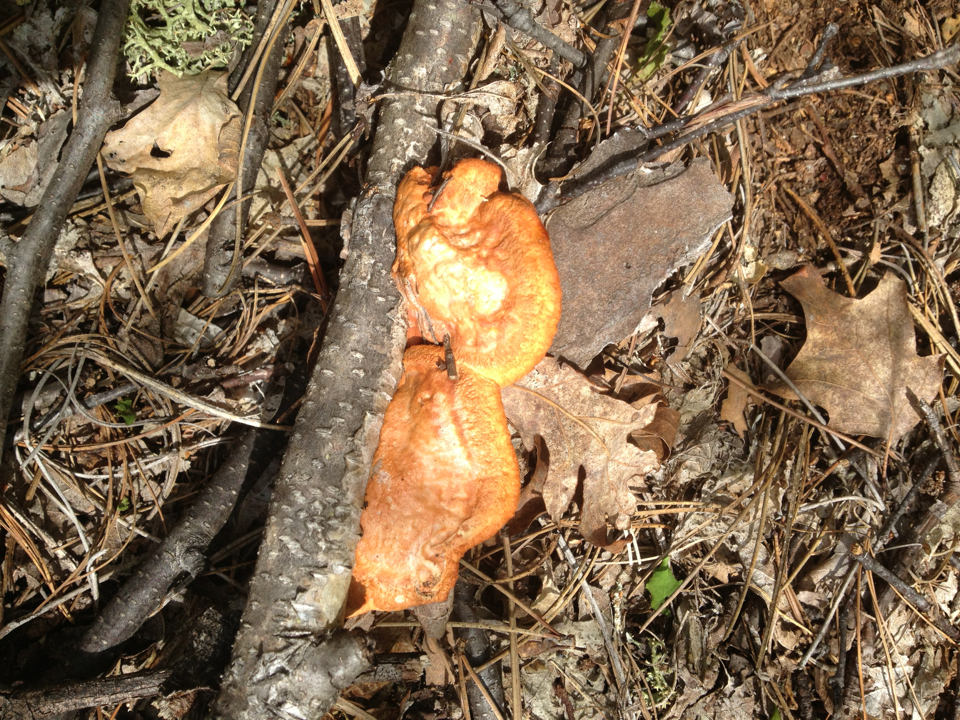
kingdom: Fungi
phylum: Basidiomycota
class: Agaricomycetes
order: Polyporales
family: Polyporaceae
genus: Trametes
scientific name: Trametes cinnabarina
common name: Northern cinnabar polypore
